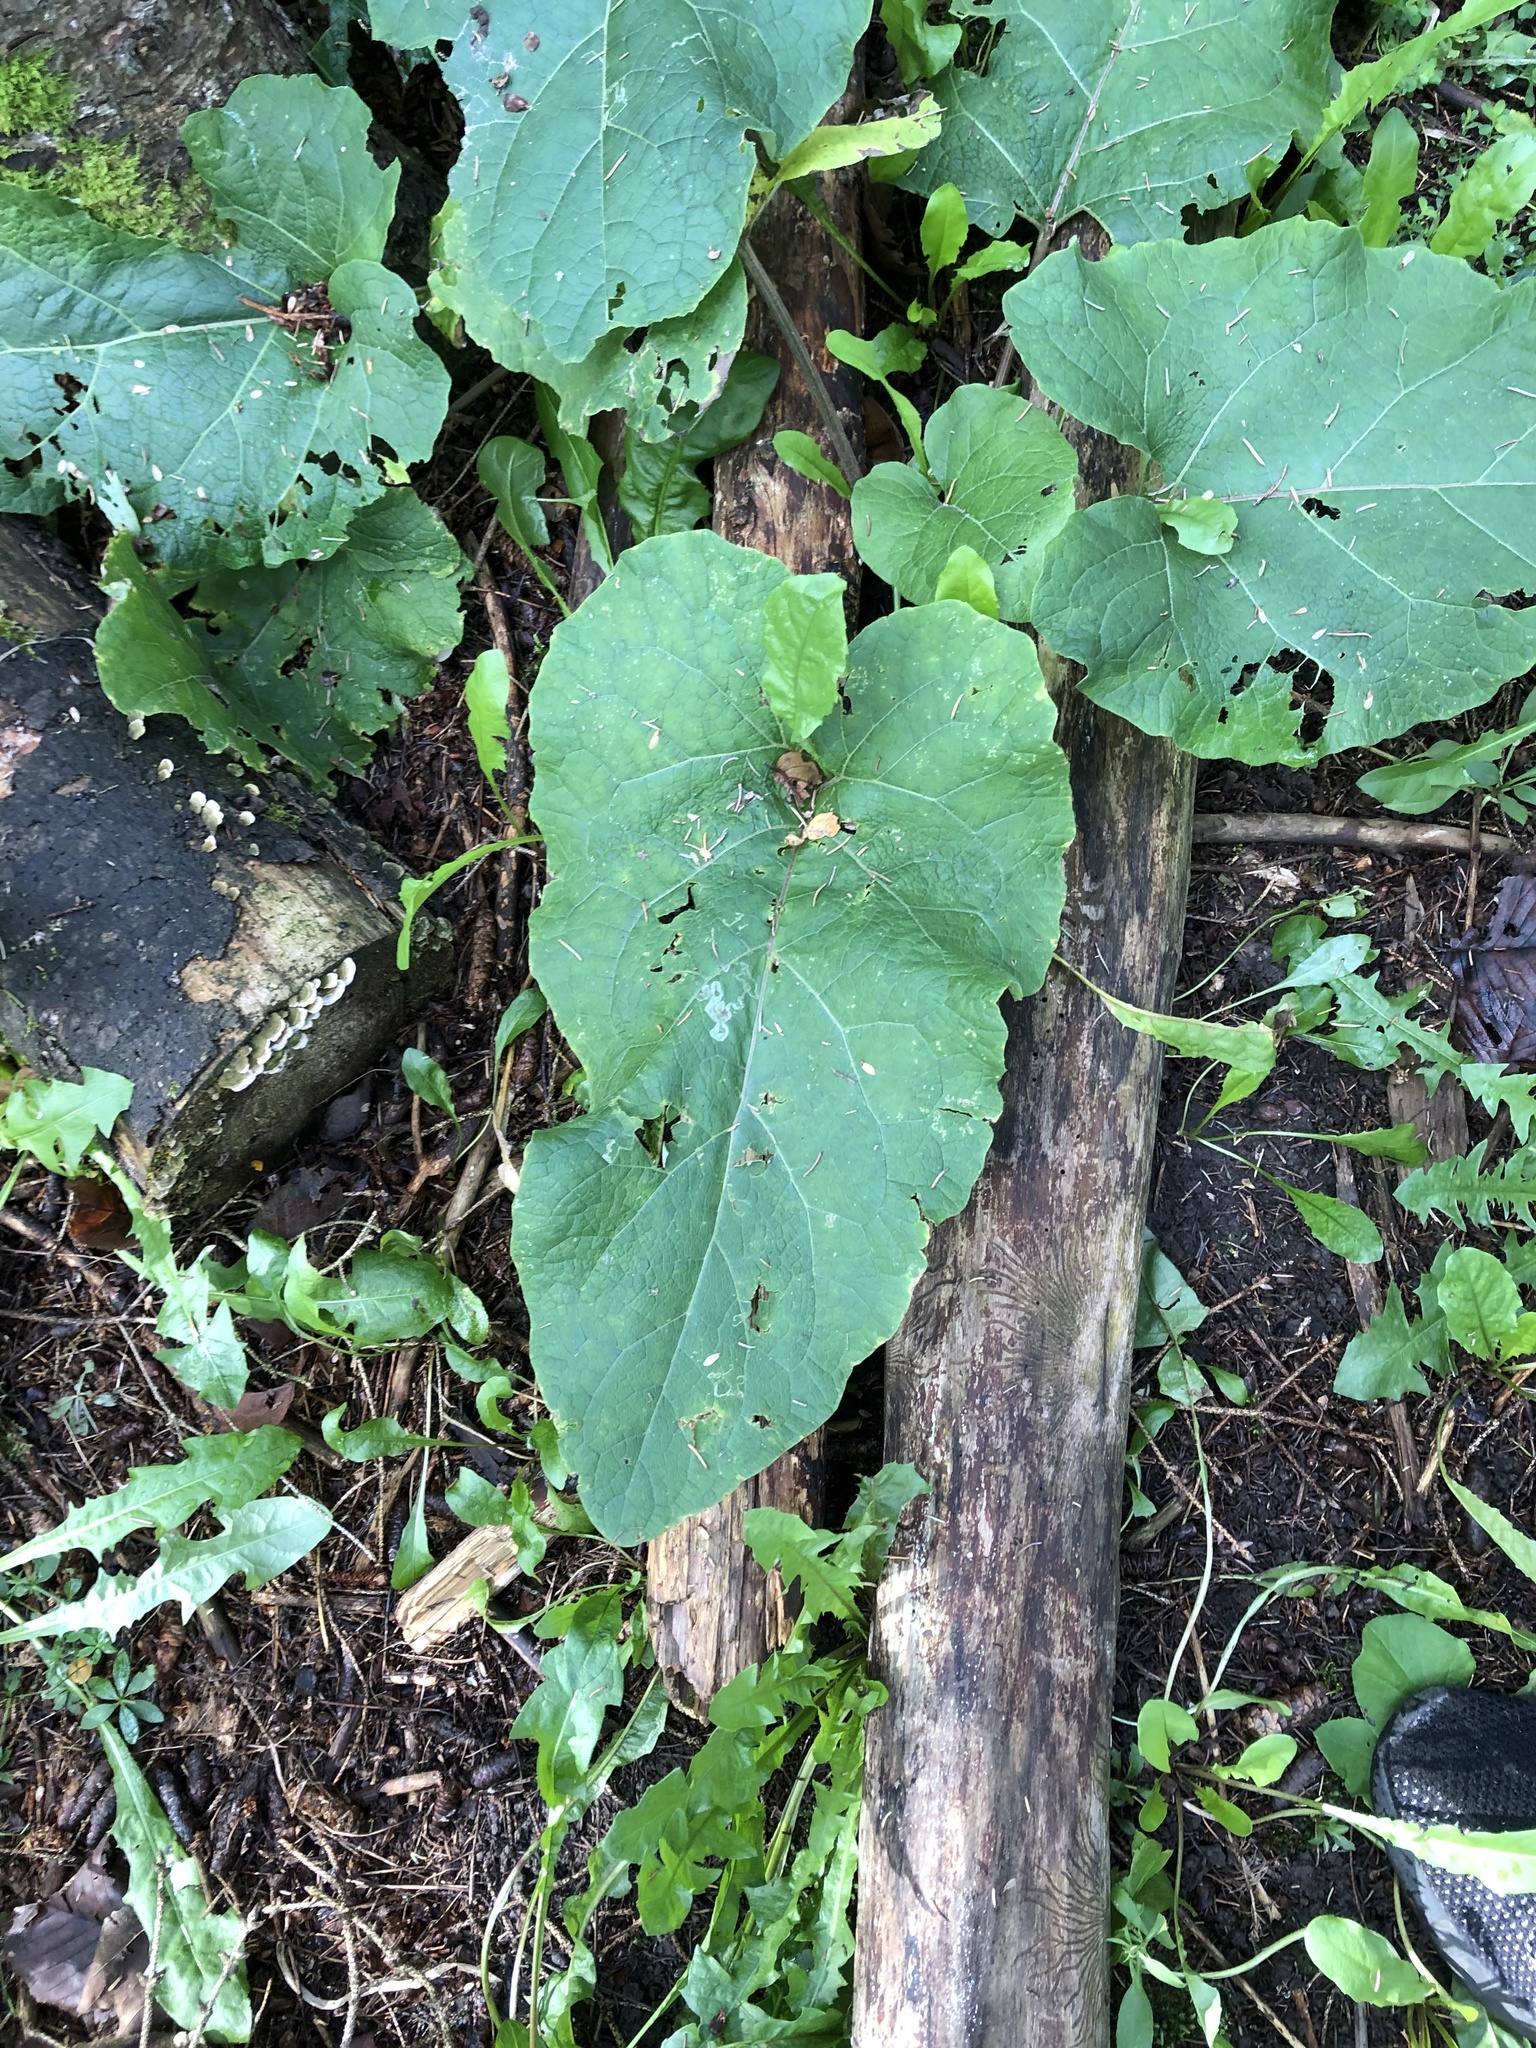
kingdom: Plantae
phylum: Tracheophyta
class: Magnoliopsida
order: Asterales
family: Asteraceae
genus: Arctium
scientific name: Arctium
